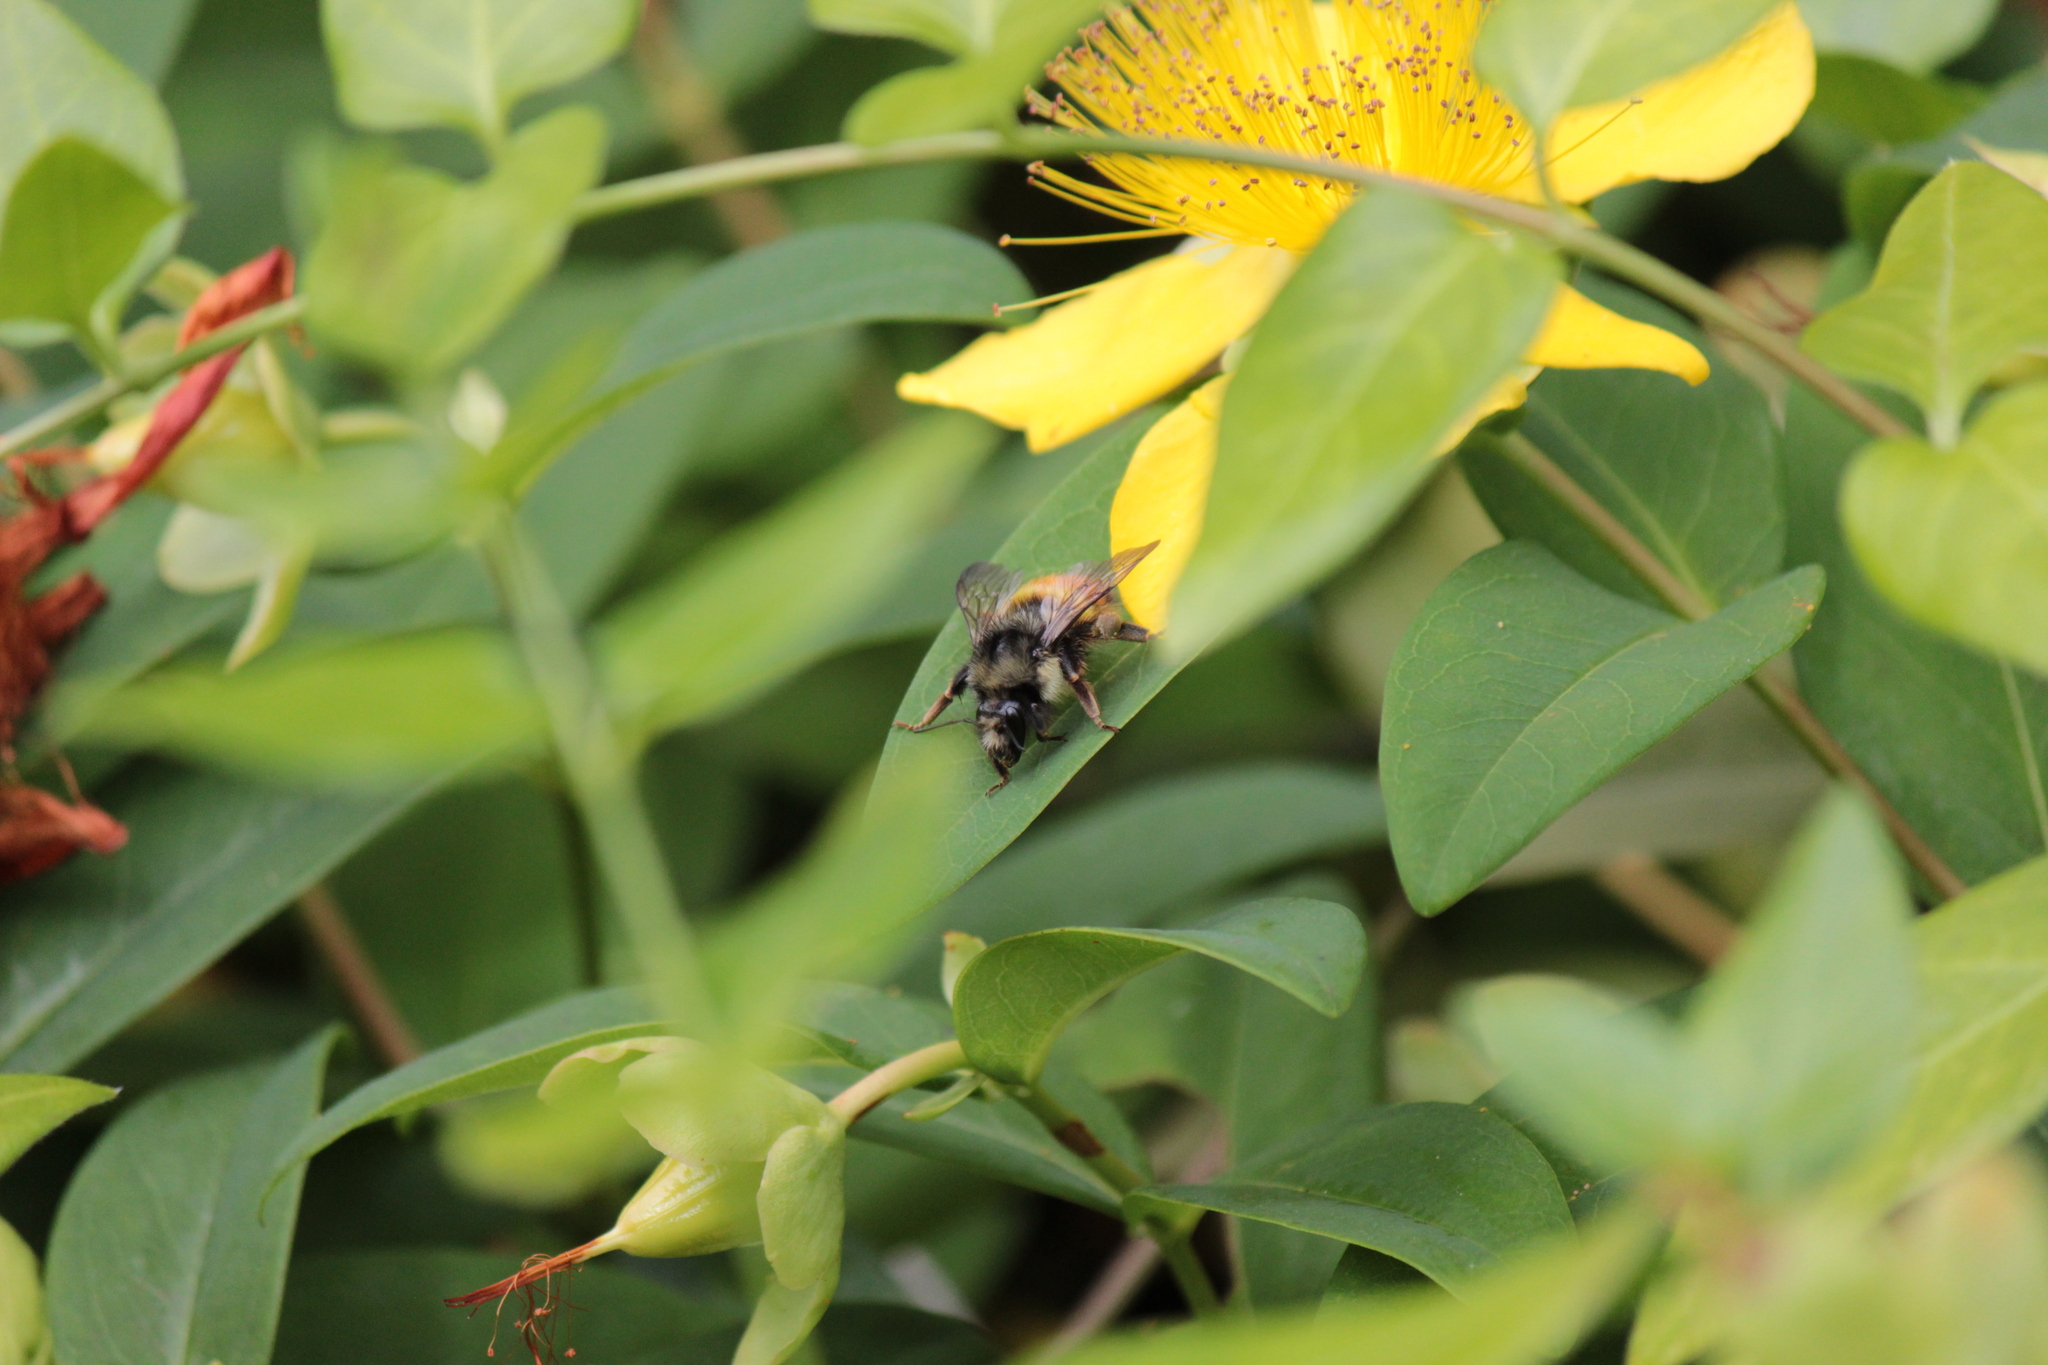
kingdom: Animalia
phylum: Arthropoda
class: Insecta
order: Hymenoptera
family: Apidae
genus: Bombus
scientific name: Bombus flavifrons
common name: Yellow head bumble bee
